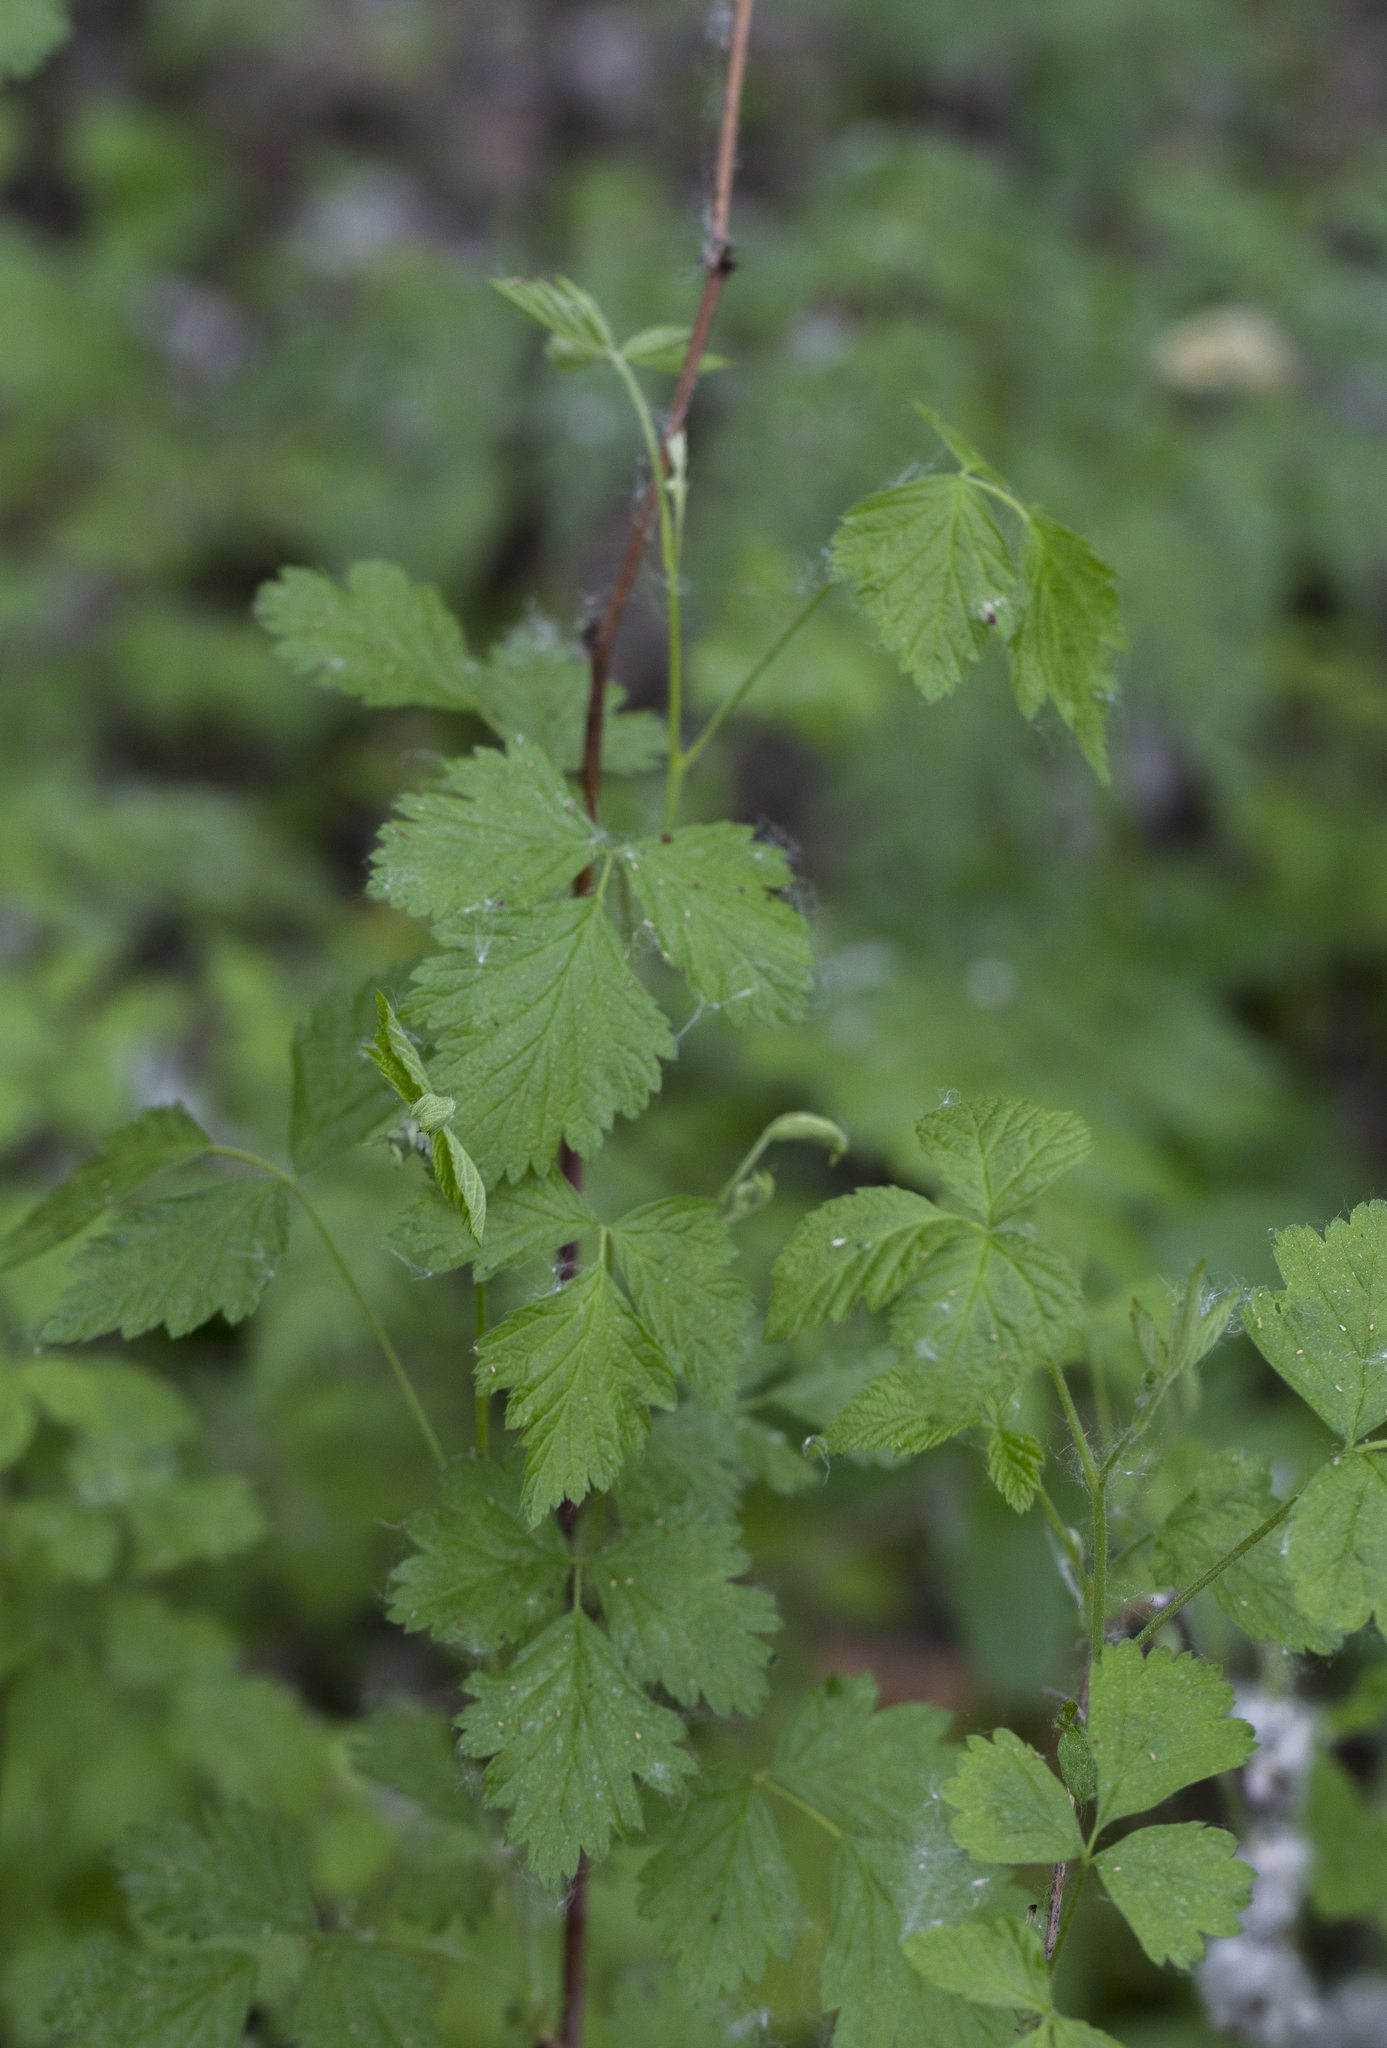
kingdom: Plantae
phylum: Tracheophyta
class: Magnoliopsida
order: Rosales
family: Rosaceae
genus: Rubus
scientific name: Rubus caesius
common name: Dewberry
